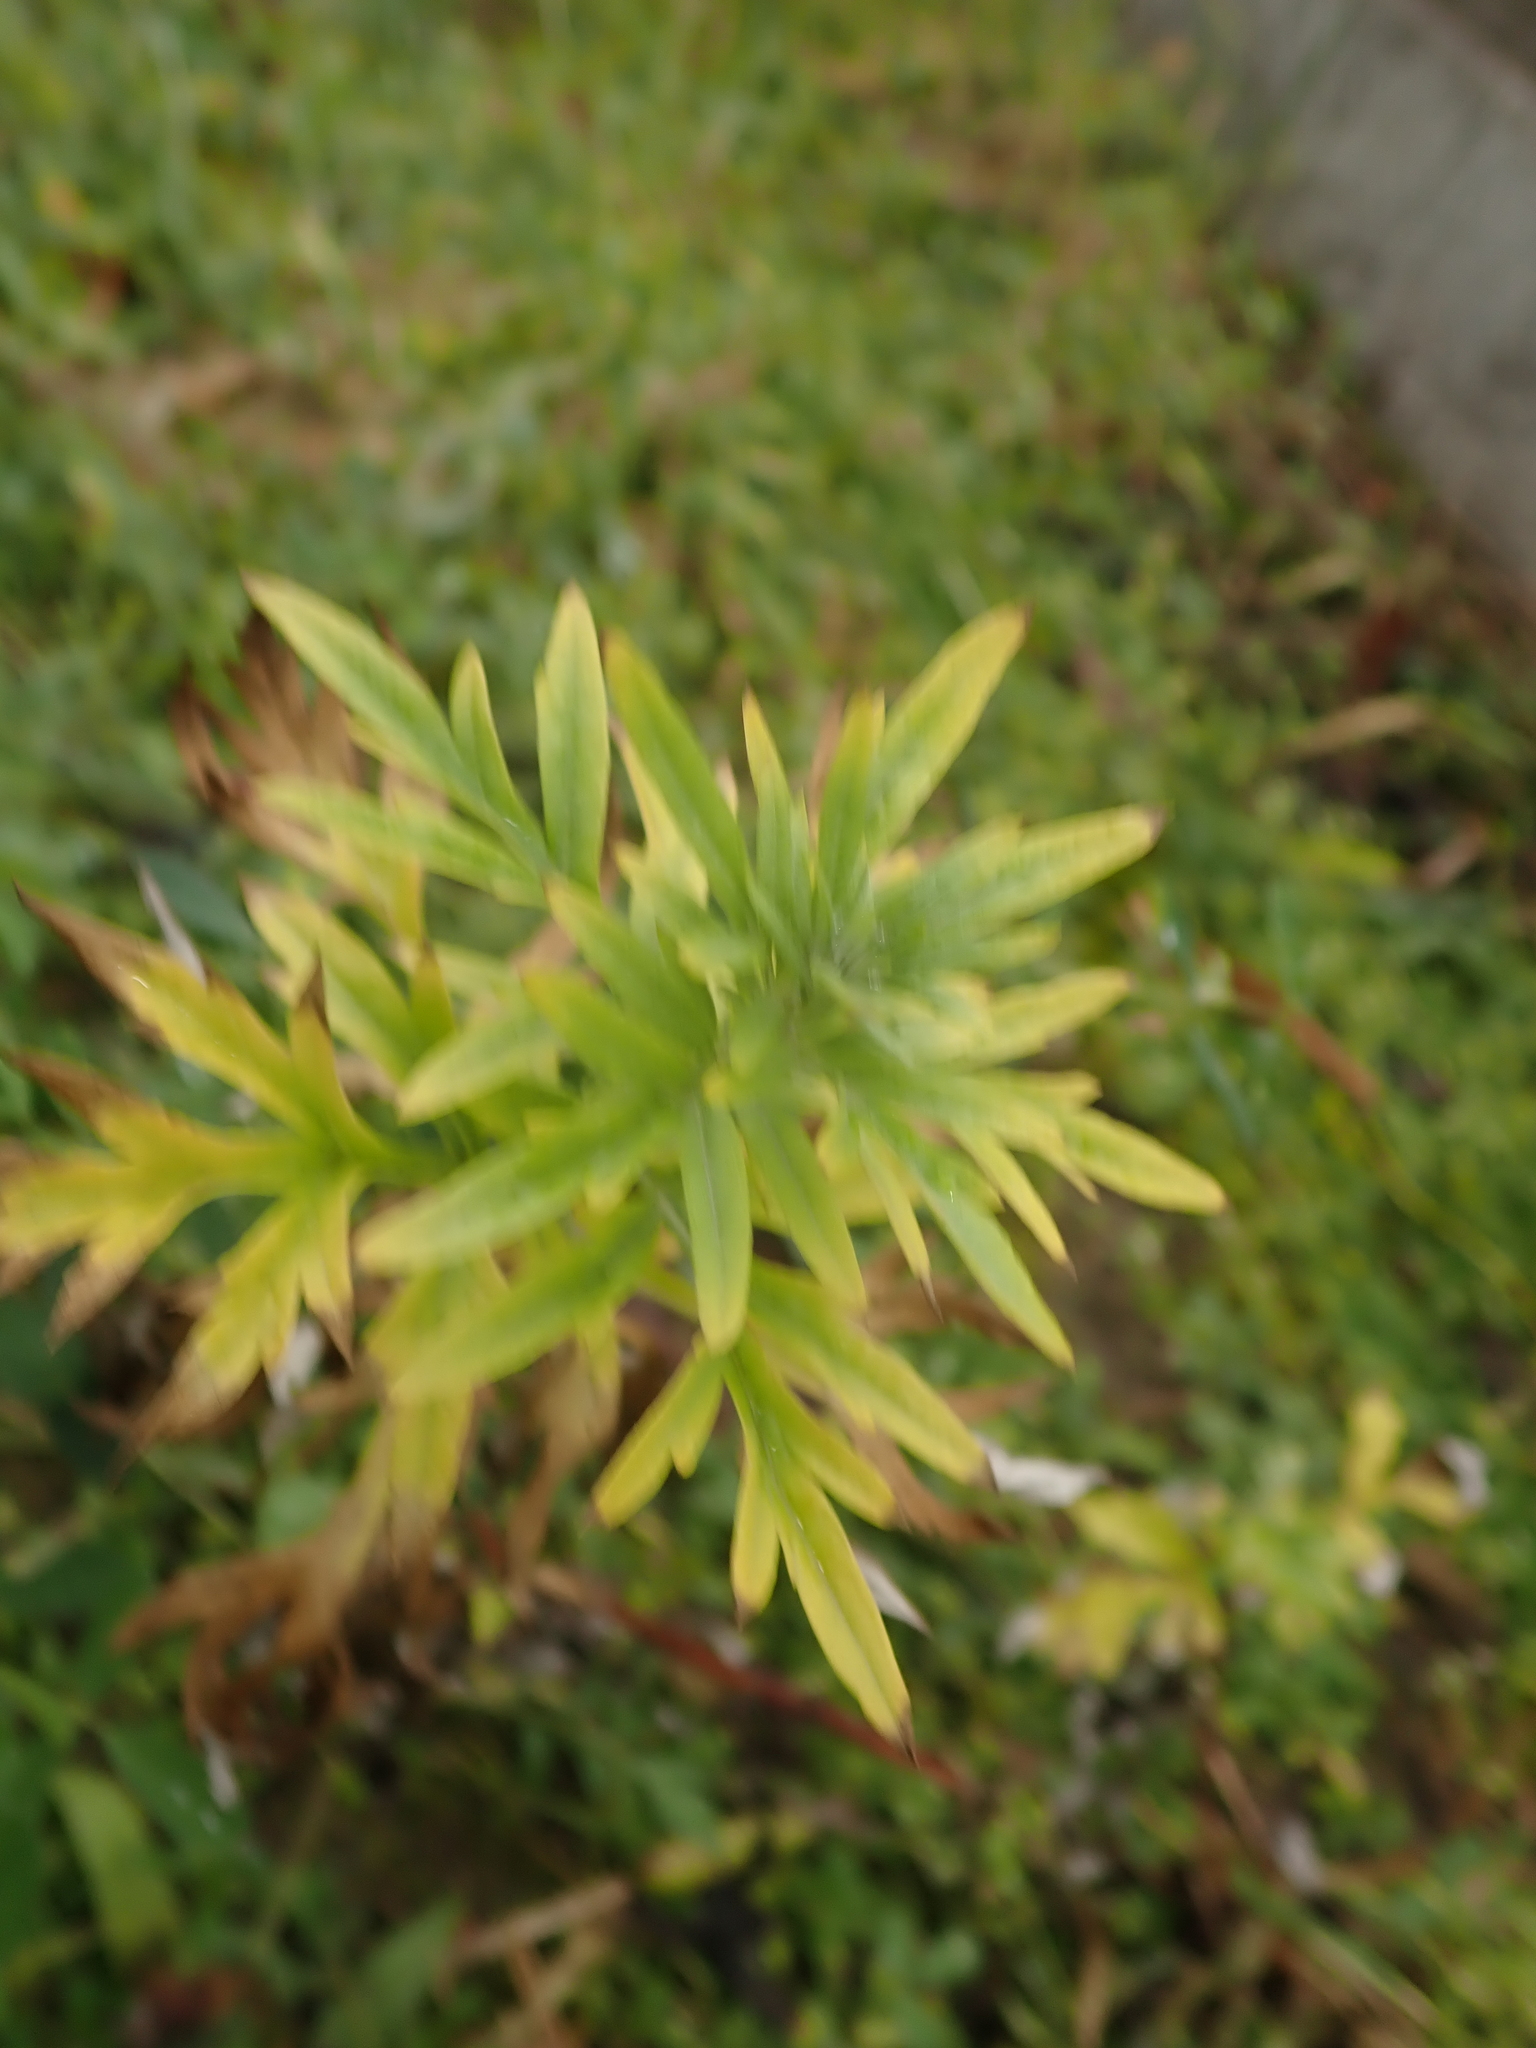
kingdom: Plantae
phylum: Tracheophyta
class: Magnoliopsida
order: Asterales
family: Asteraceae
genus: Artemisia
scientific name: Artemisia vulgaris
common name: Mugwort
